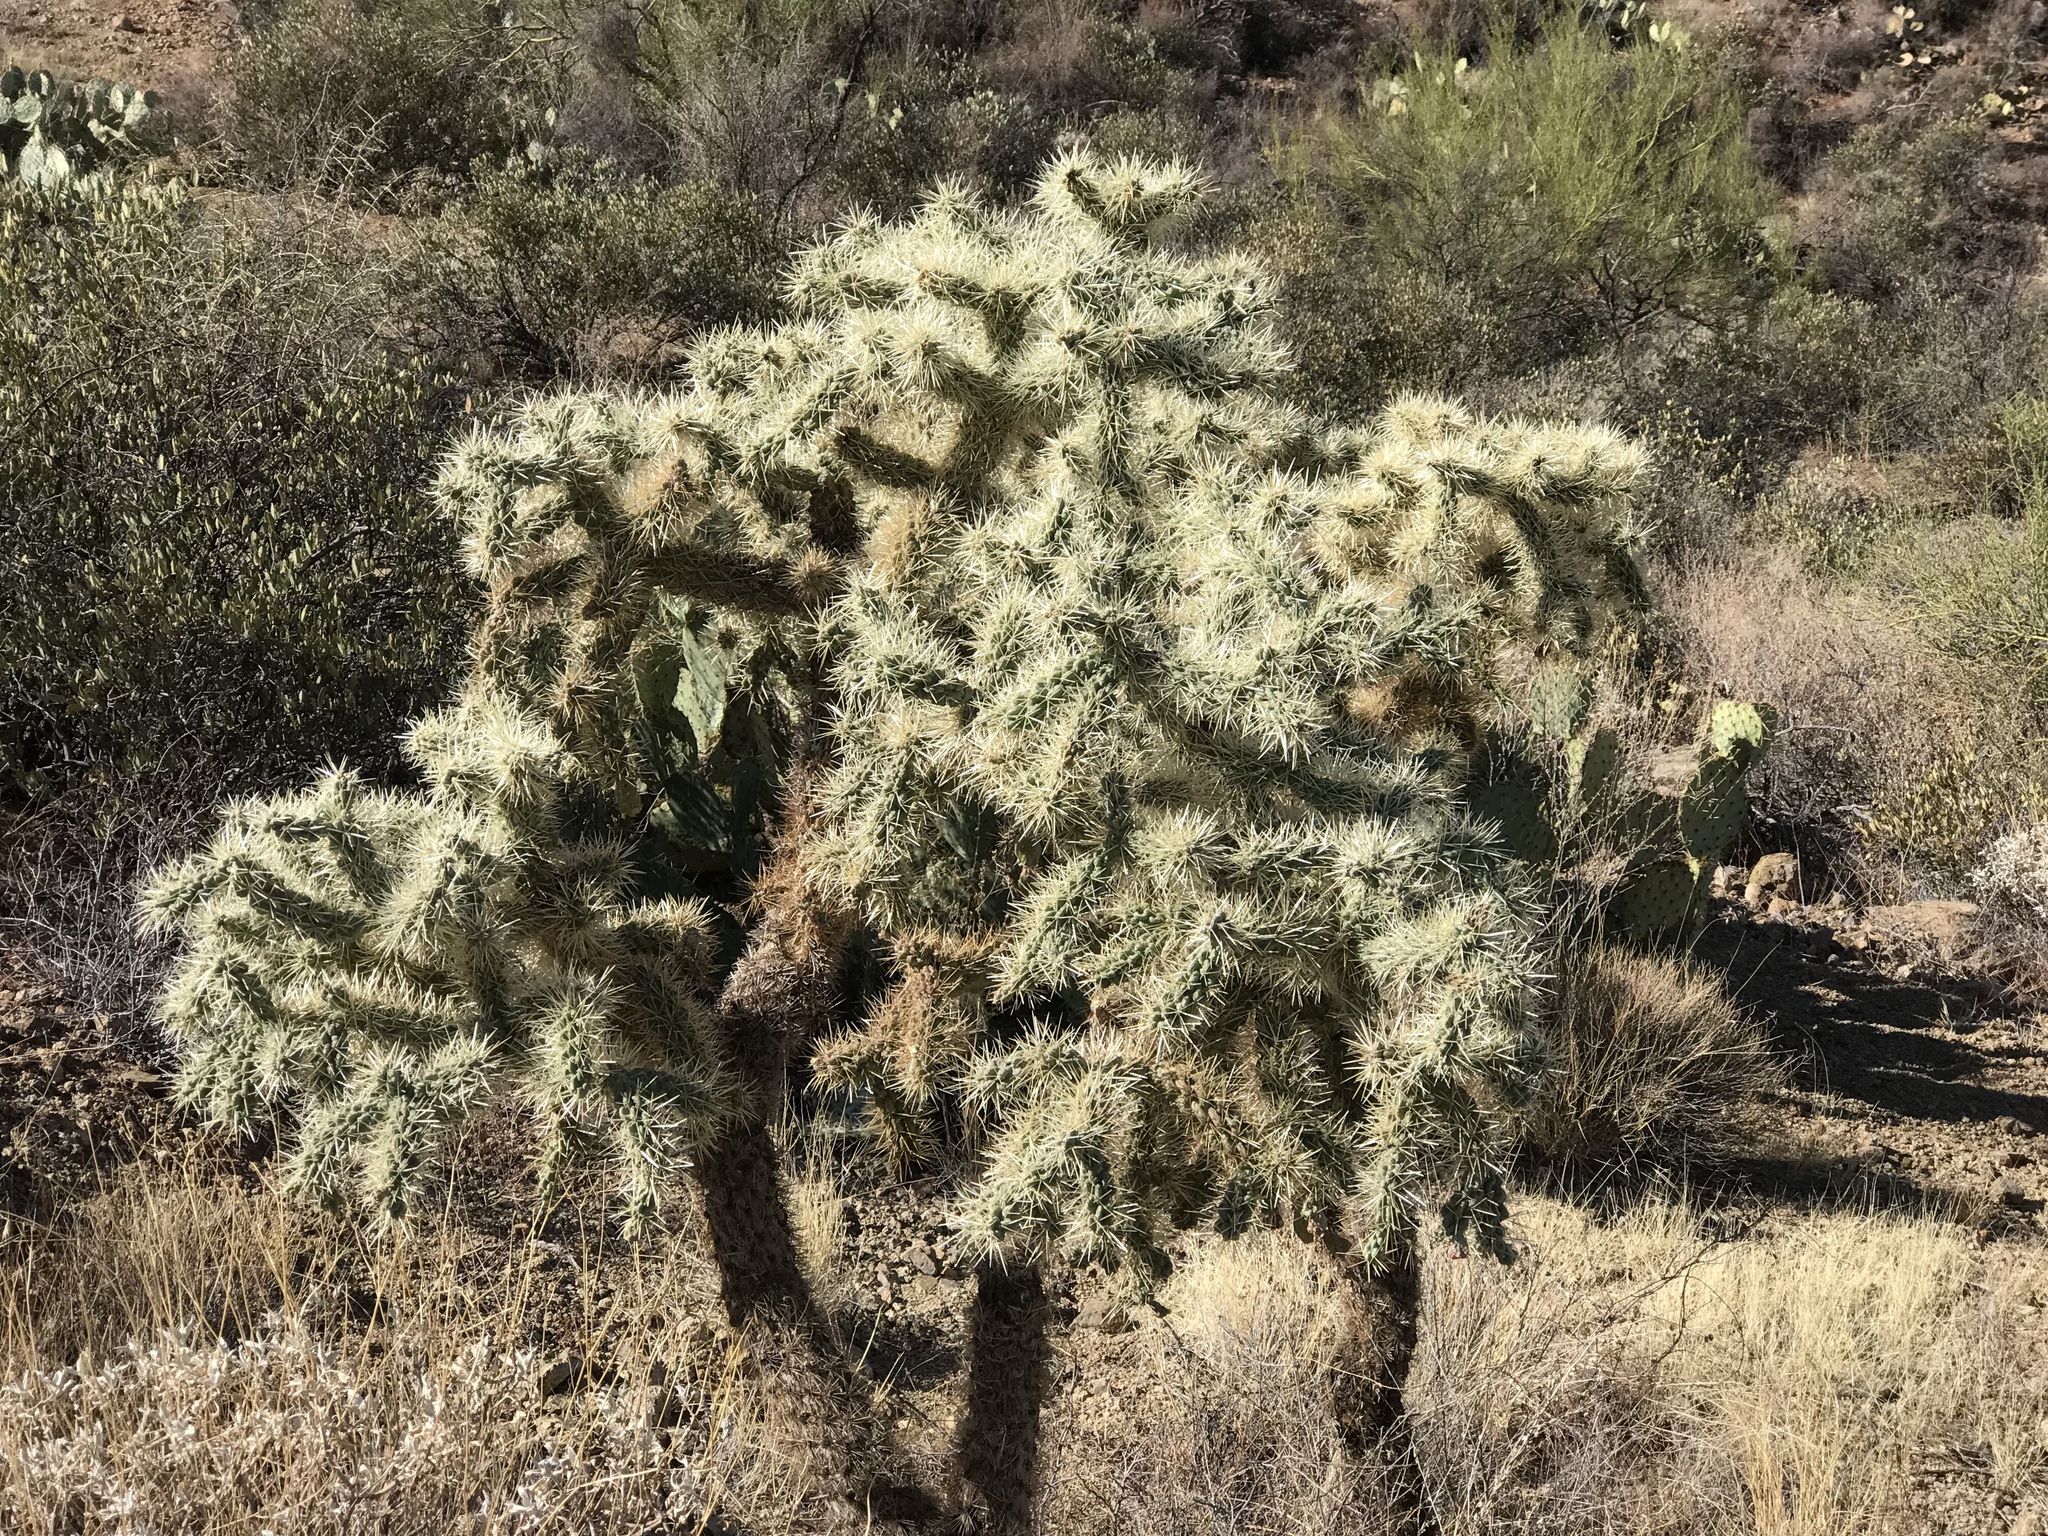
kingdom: Plantae
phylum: Tracheophyta
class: Magnoliopsida
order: Caryophyllales
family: Cactaceae
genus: Cylindropuntia
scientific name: Cylindropuntia fulgida
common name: Jumping cholla
